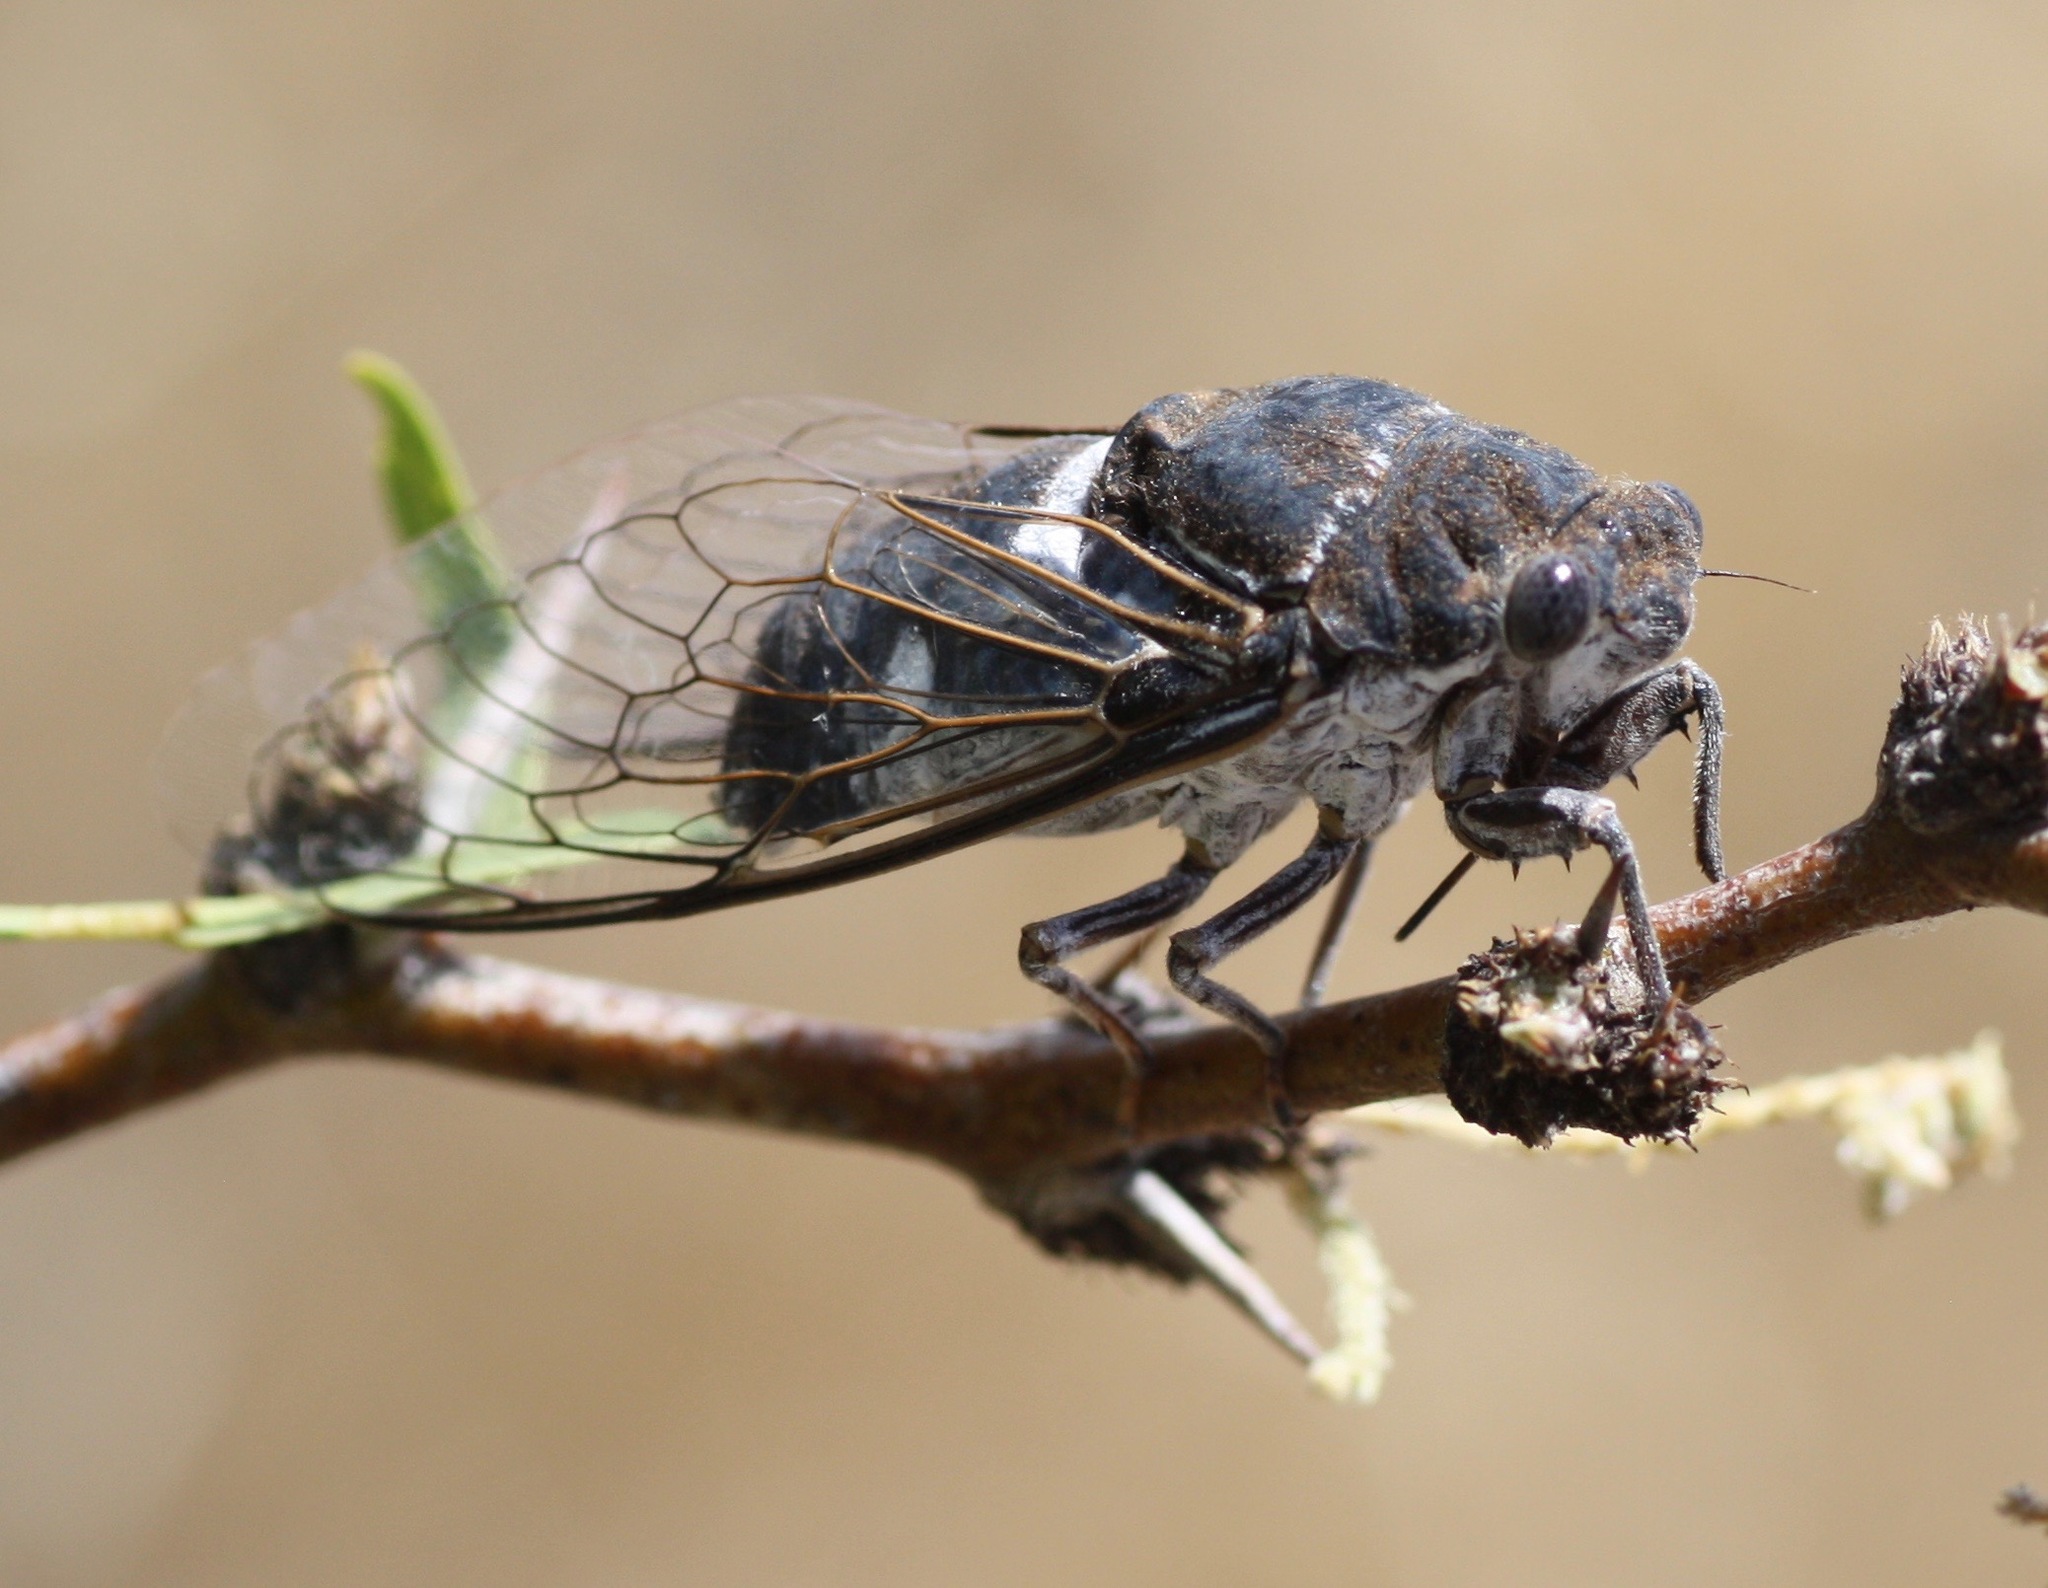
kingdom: Animalia
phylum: Arthropoda
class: Insecta
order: Hemiptera
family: Cicadidae
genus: Cacama
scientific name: Cacama
